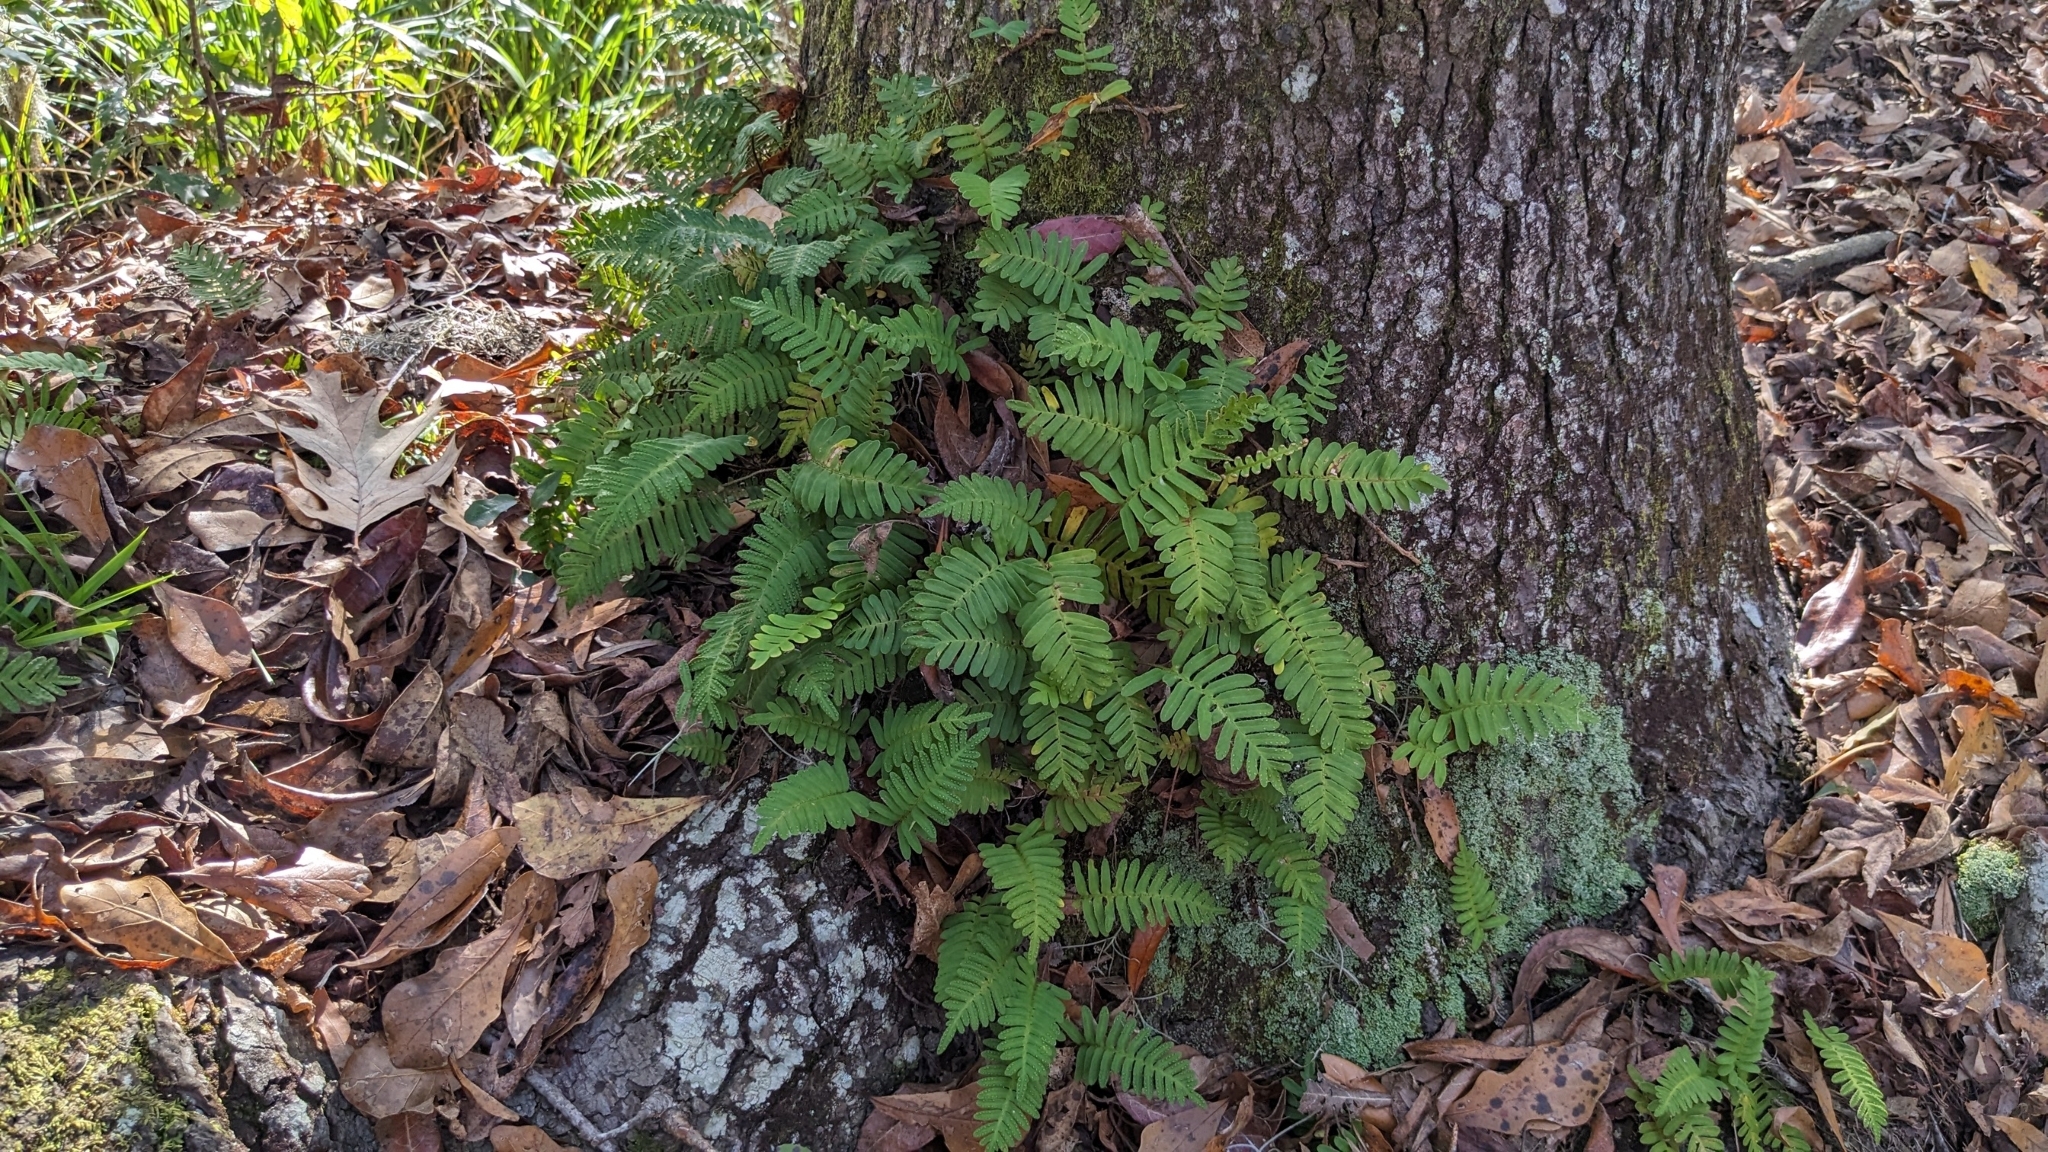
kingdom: Plantae
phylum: Tracheophyta
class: Polypodiopsida
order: Polypodiales
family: Polypodiaceae
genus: Pleopeltis
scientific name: Pleopeltis michauxiana
